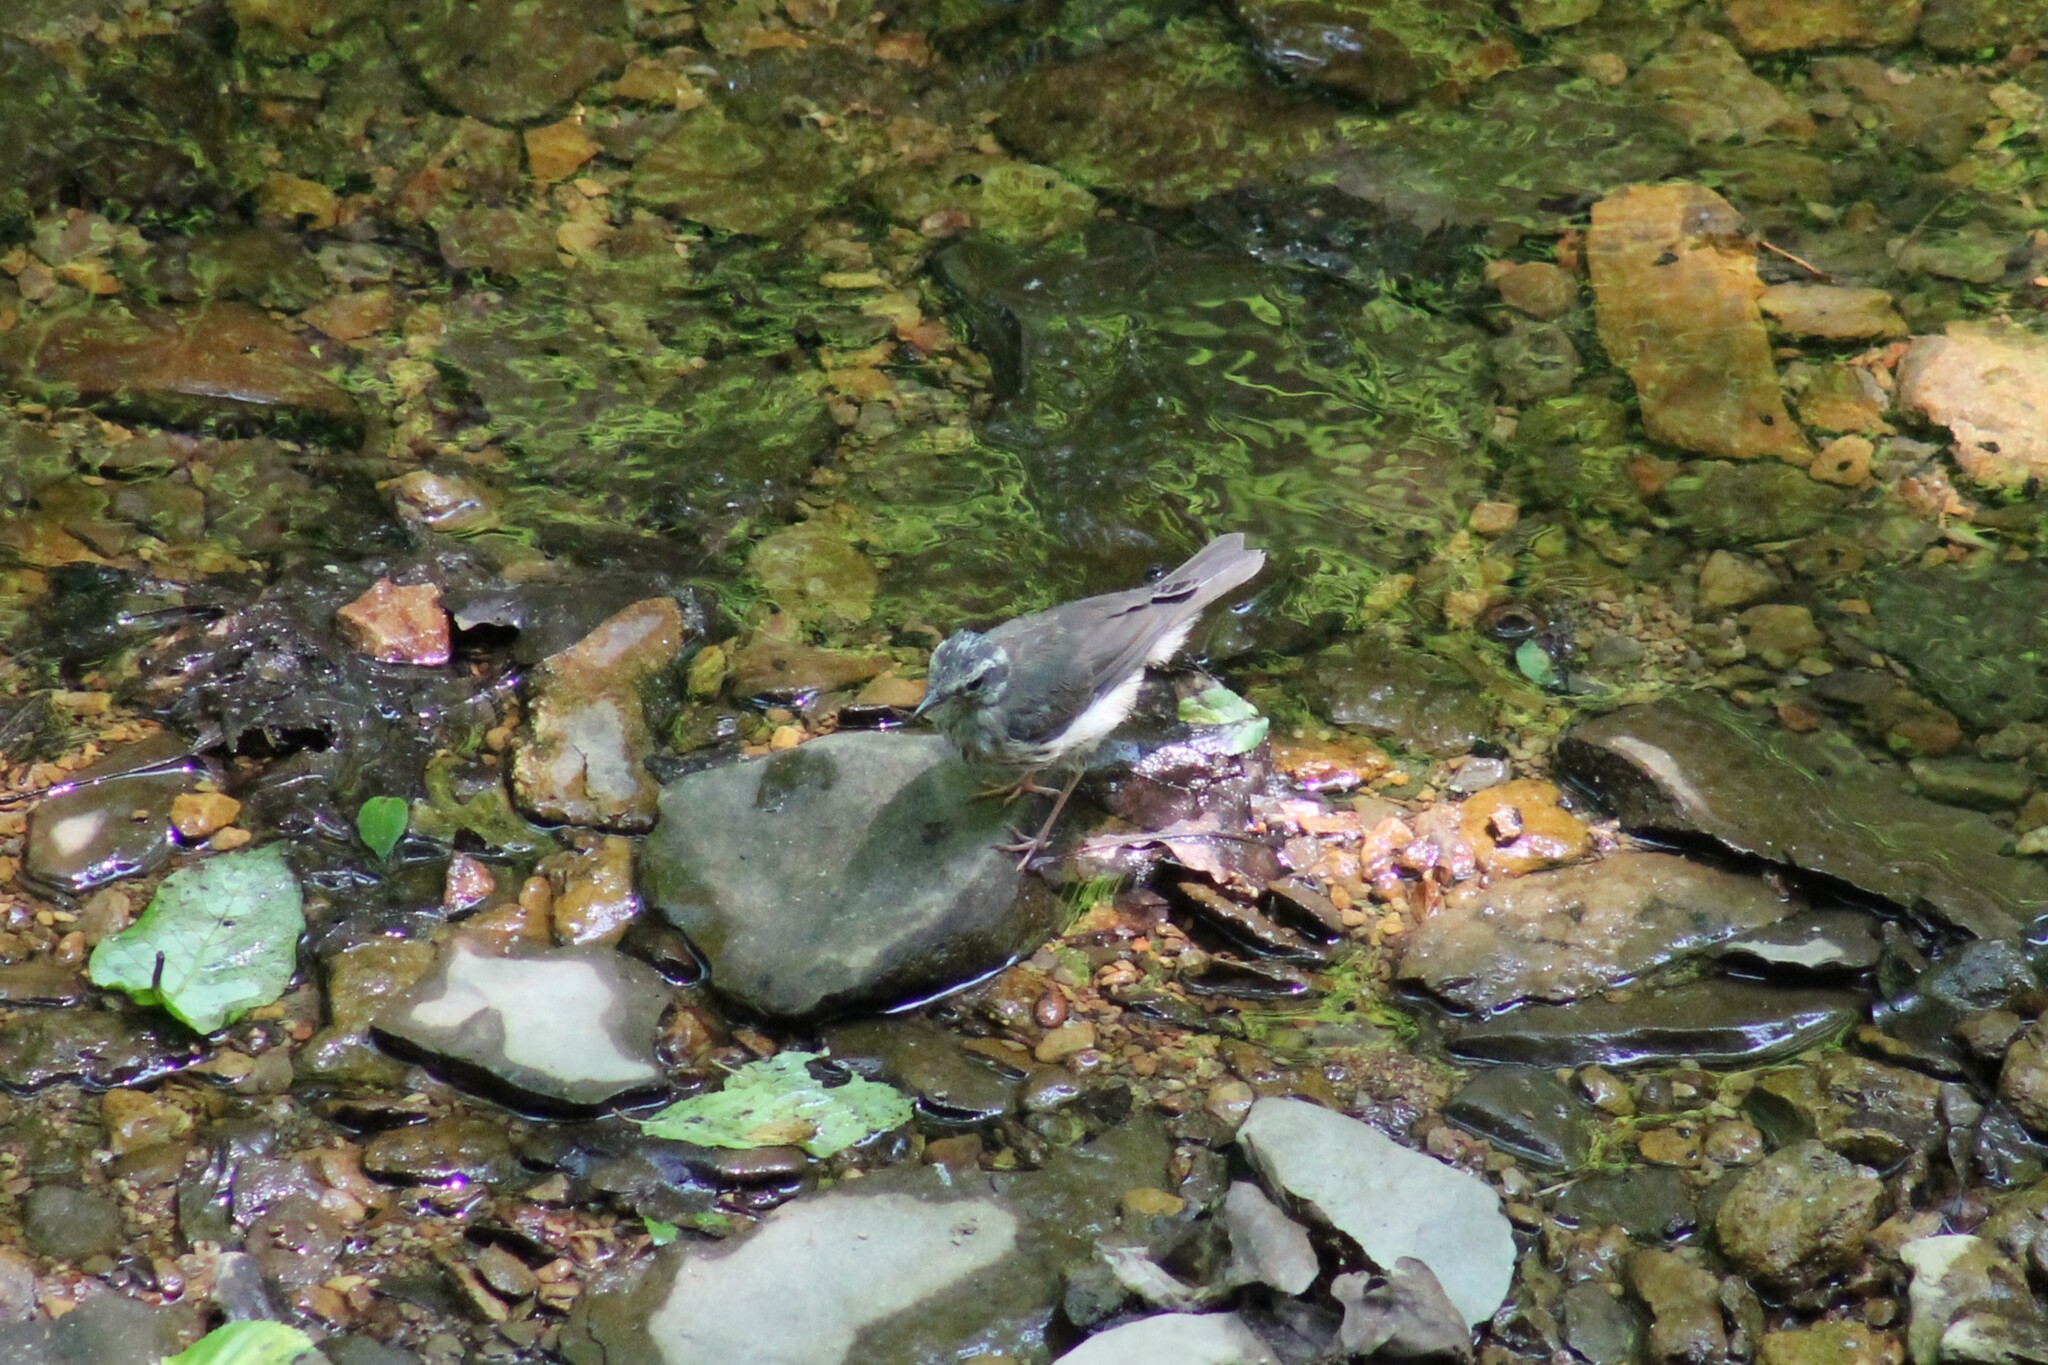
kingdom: Animalia
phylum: Chordata
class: Aves
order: Passeriformes
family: Parulidae
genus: Parkesia
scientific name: Parkesia motacilla
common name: Louisiana waterthrush
